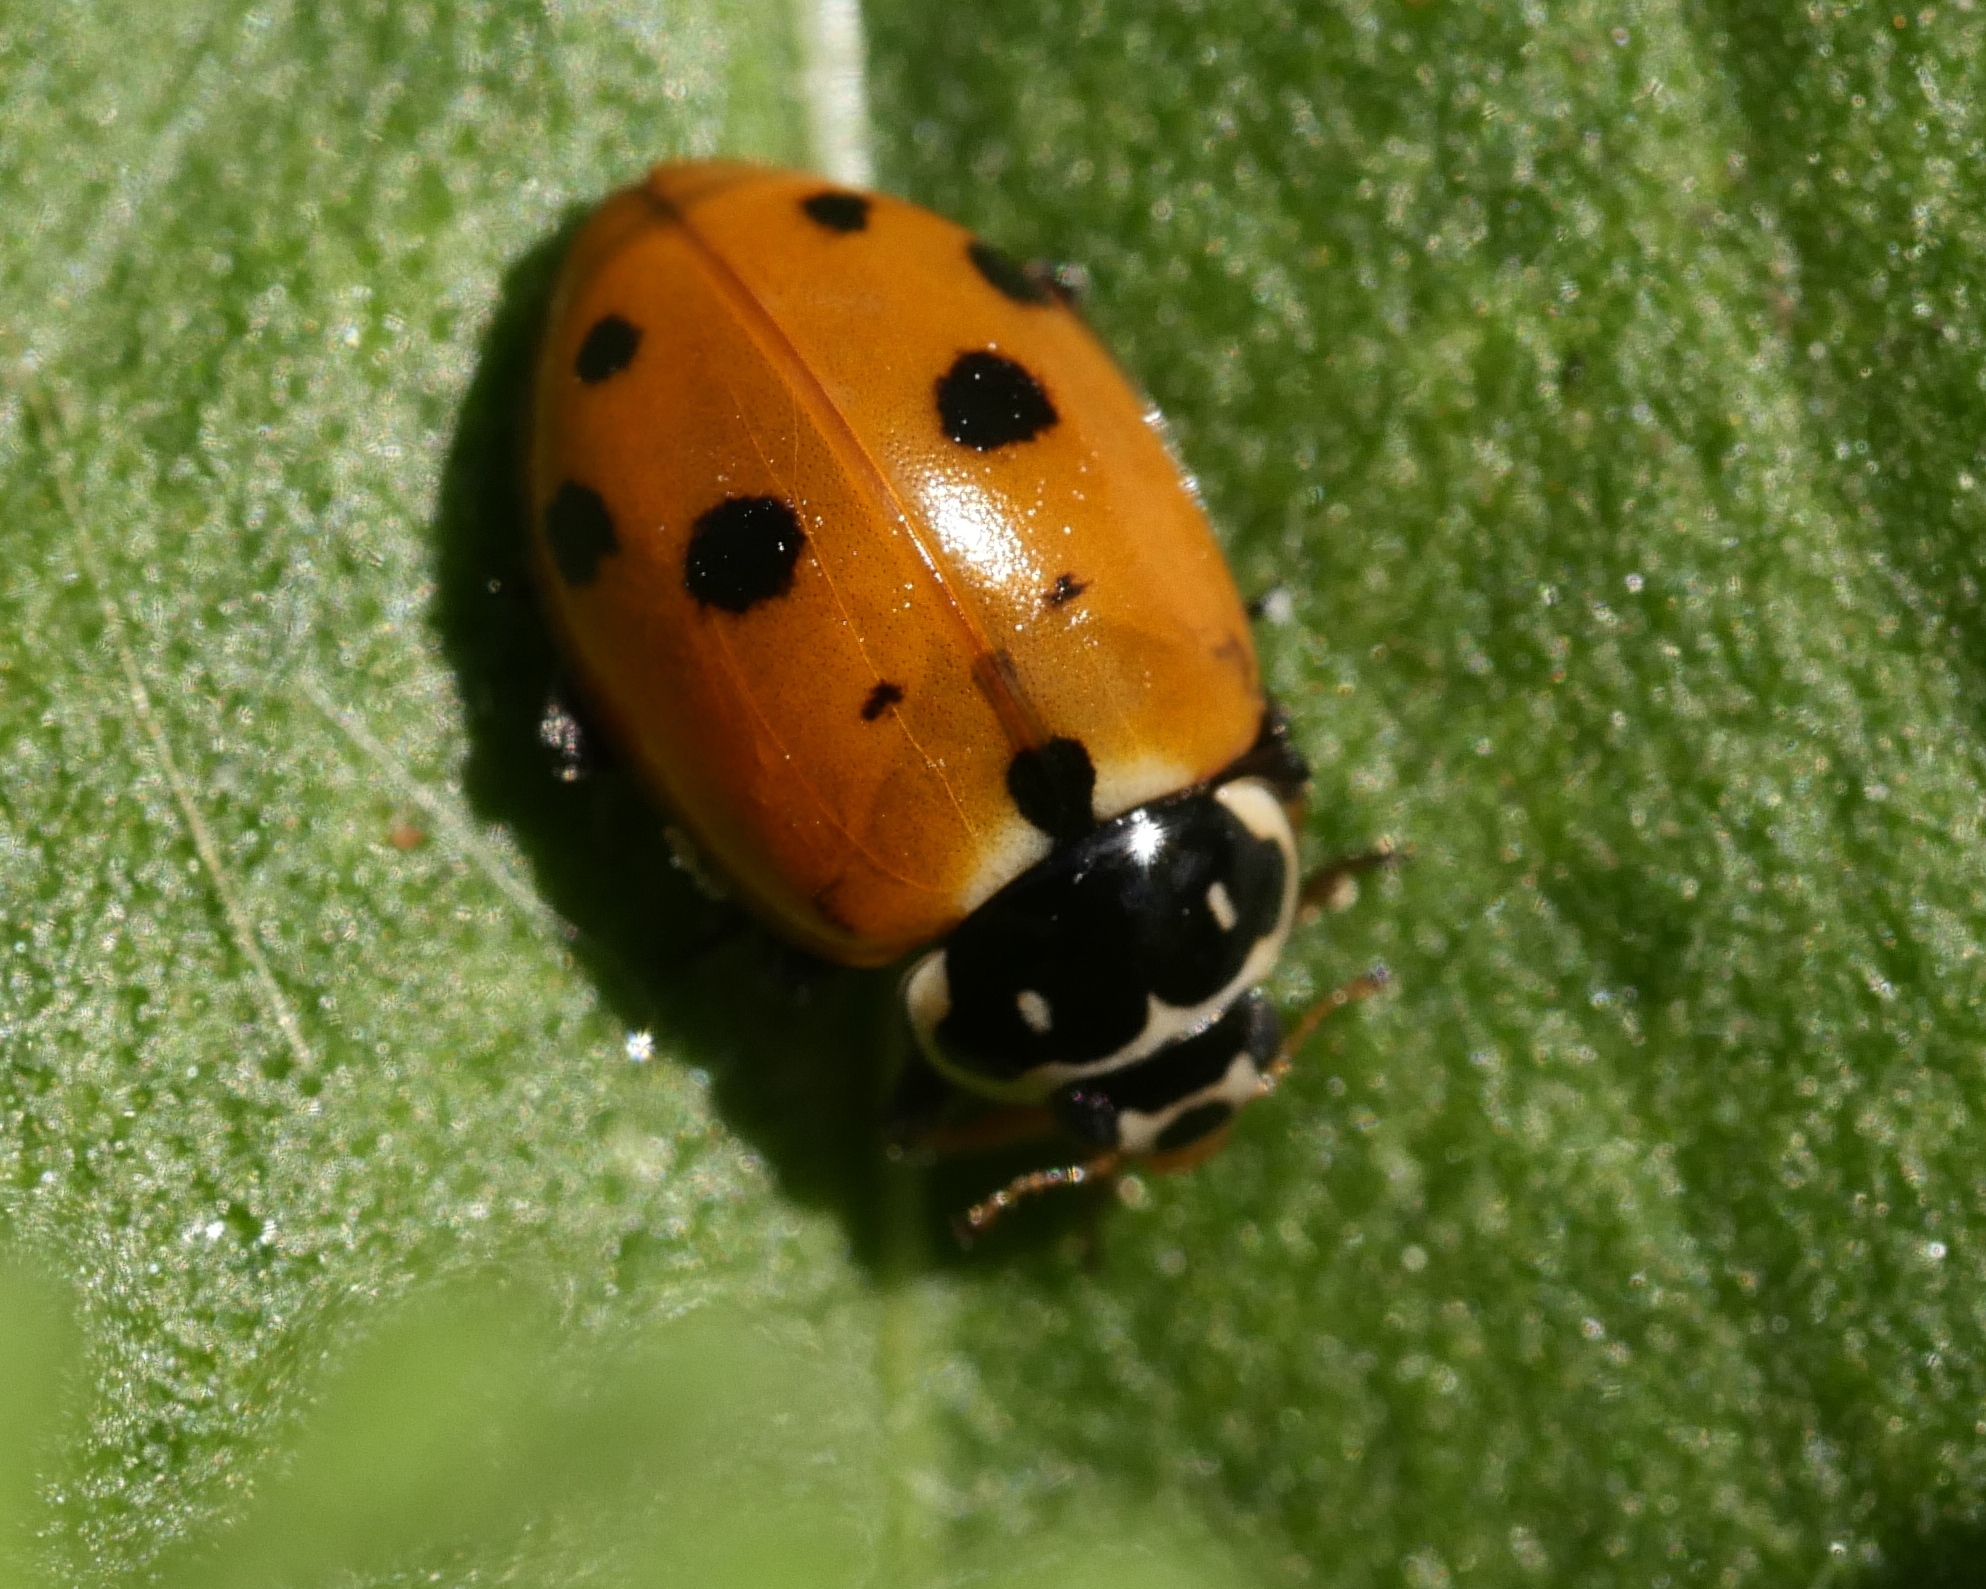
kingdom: Animalia
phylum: Arthropoda
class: Insecta
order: Coleoptera
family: Coccinellidae
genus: Hippodamia
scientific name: Hippodamia variegata
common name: Ladybird beetle
